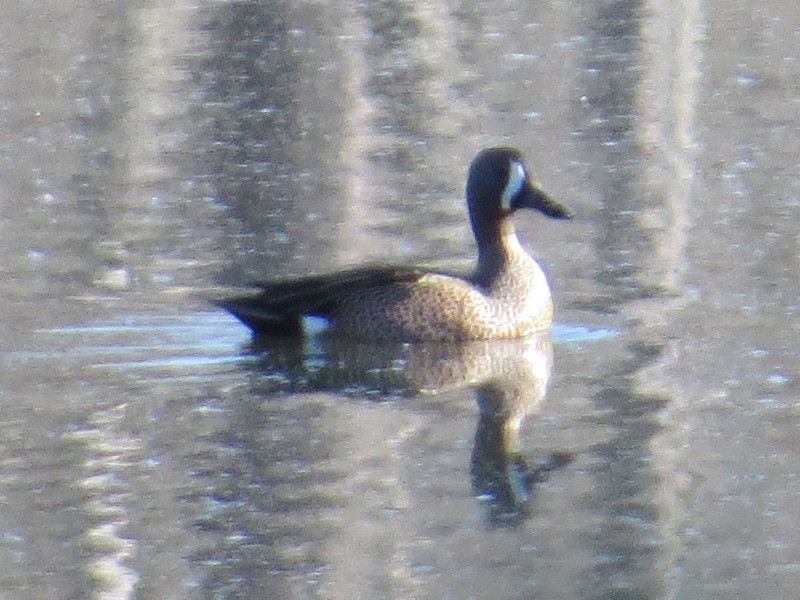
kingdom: Animalia
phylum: Chordata
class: Aves
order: Anseriformes
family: Anatidae
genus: Spatula
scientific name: Spatula discors
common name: Blue-winged teal
